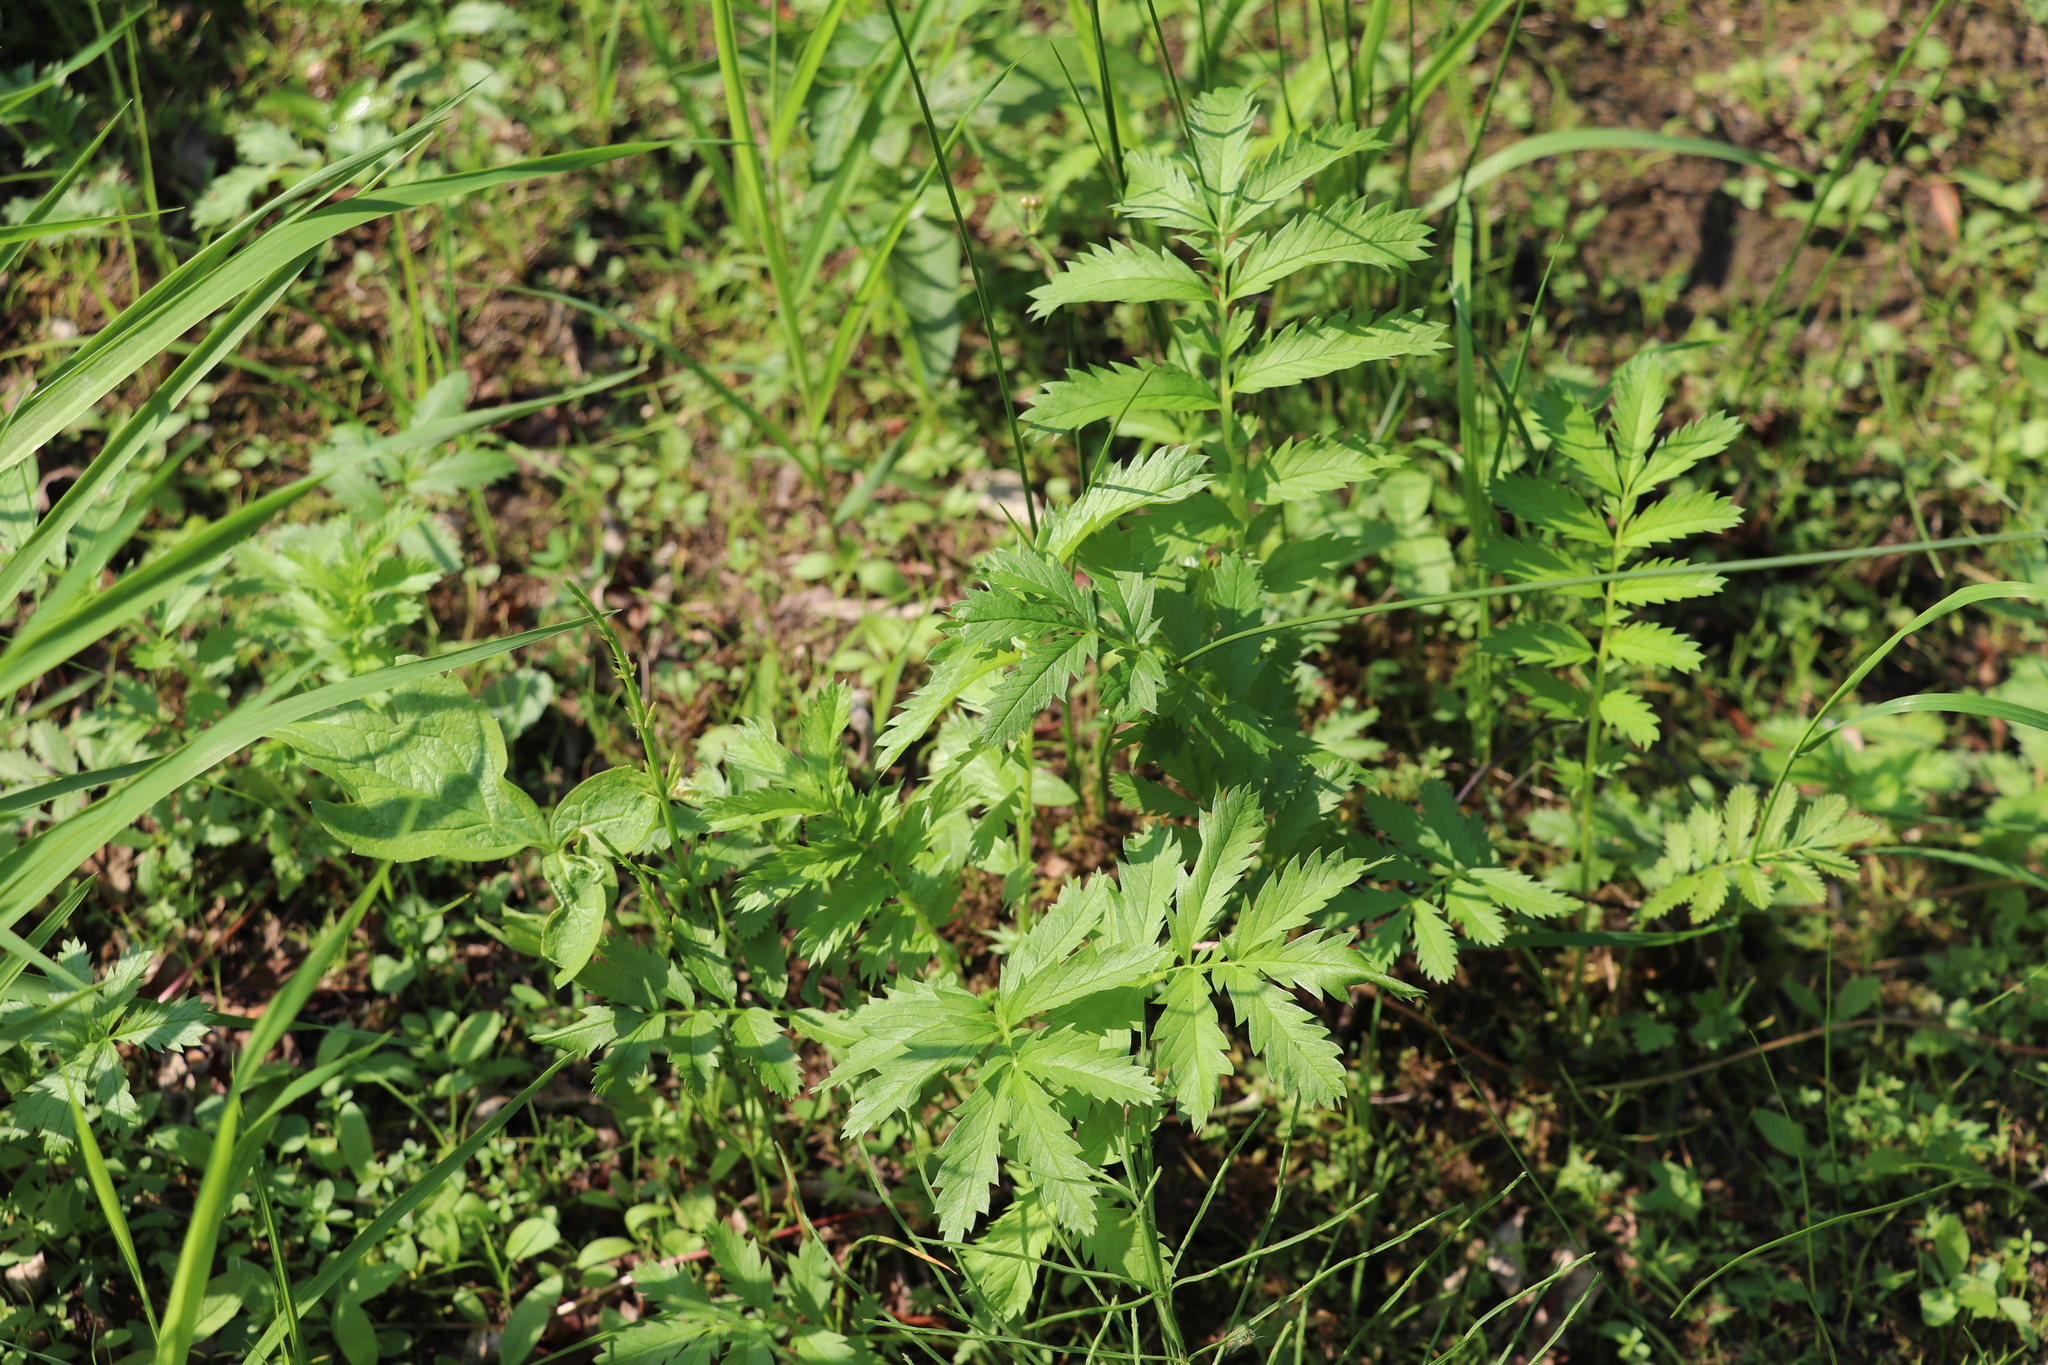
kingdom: Plantae
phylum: Tracheophyta
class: Magnoliopsida
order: Rosales
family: Rosaceae
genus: Argentina
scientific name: Argentina anserina
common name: Common silverweed
